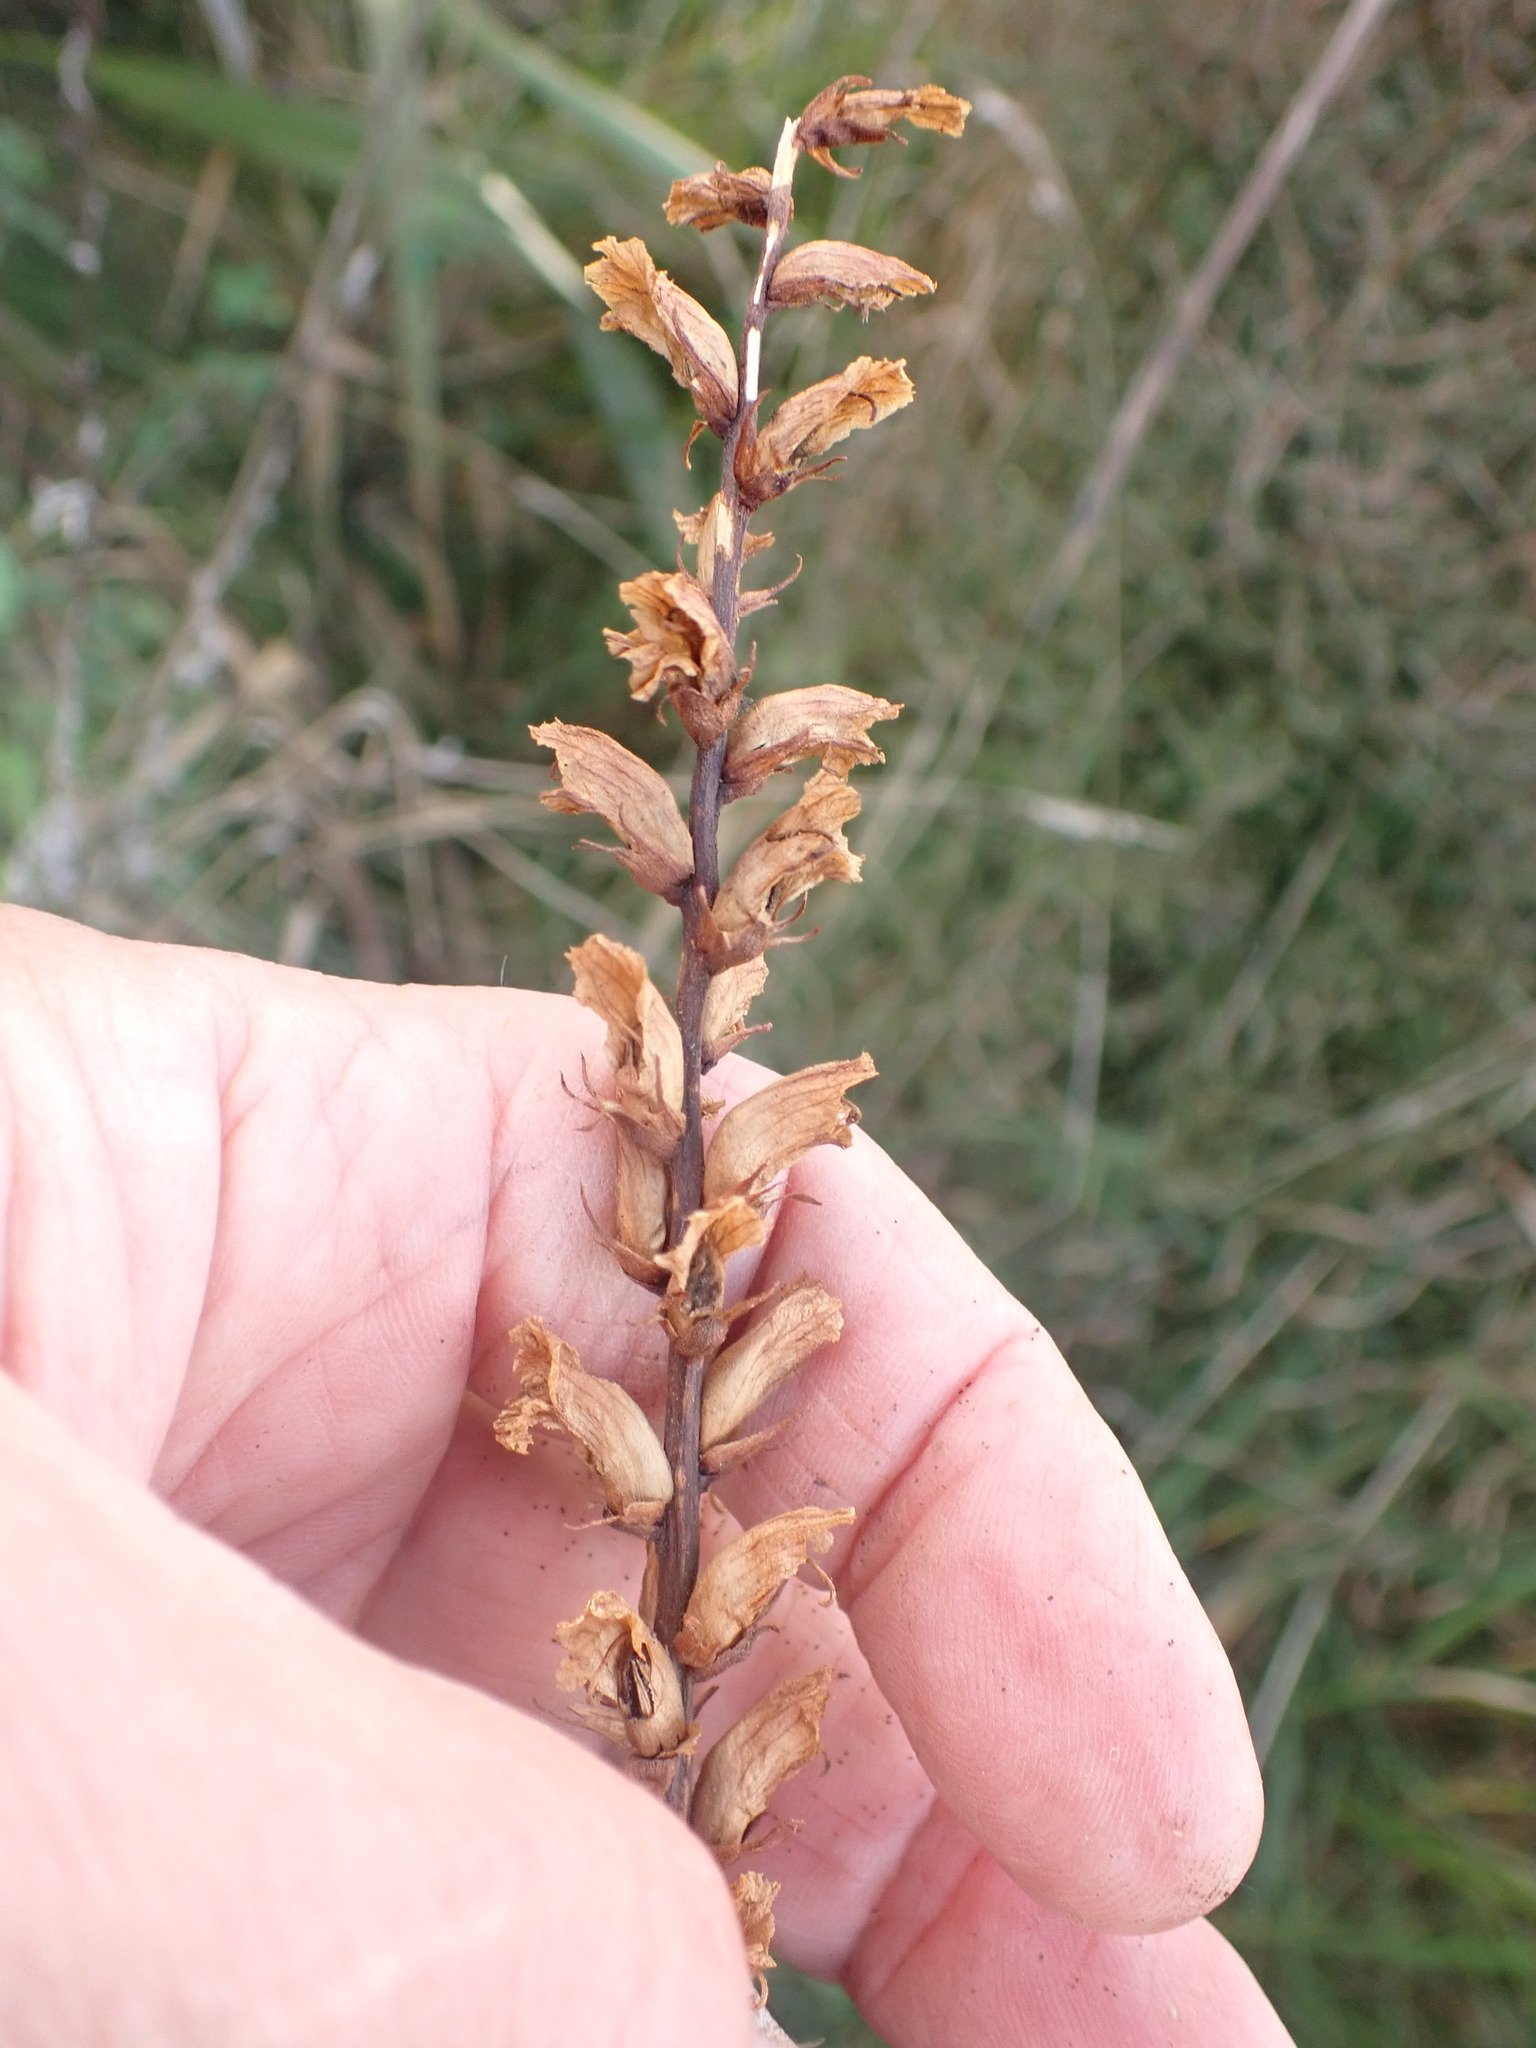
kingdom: Plantae
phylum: Tracheophyta
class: Magnoliopsida
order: Lamiales
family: Orobanchaceae
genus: Orobanche
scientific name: Orobanche minor
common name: Common broomrape
